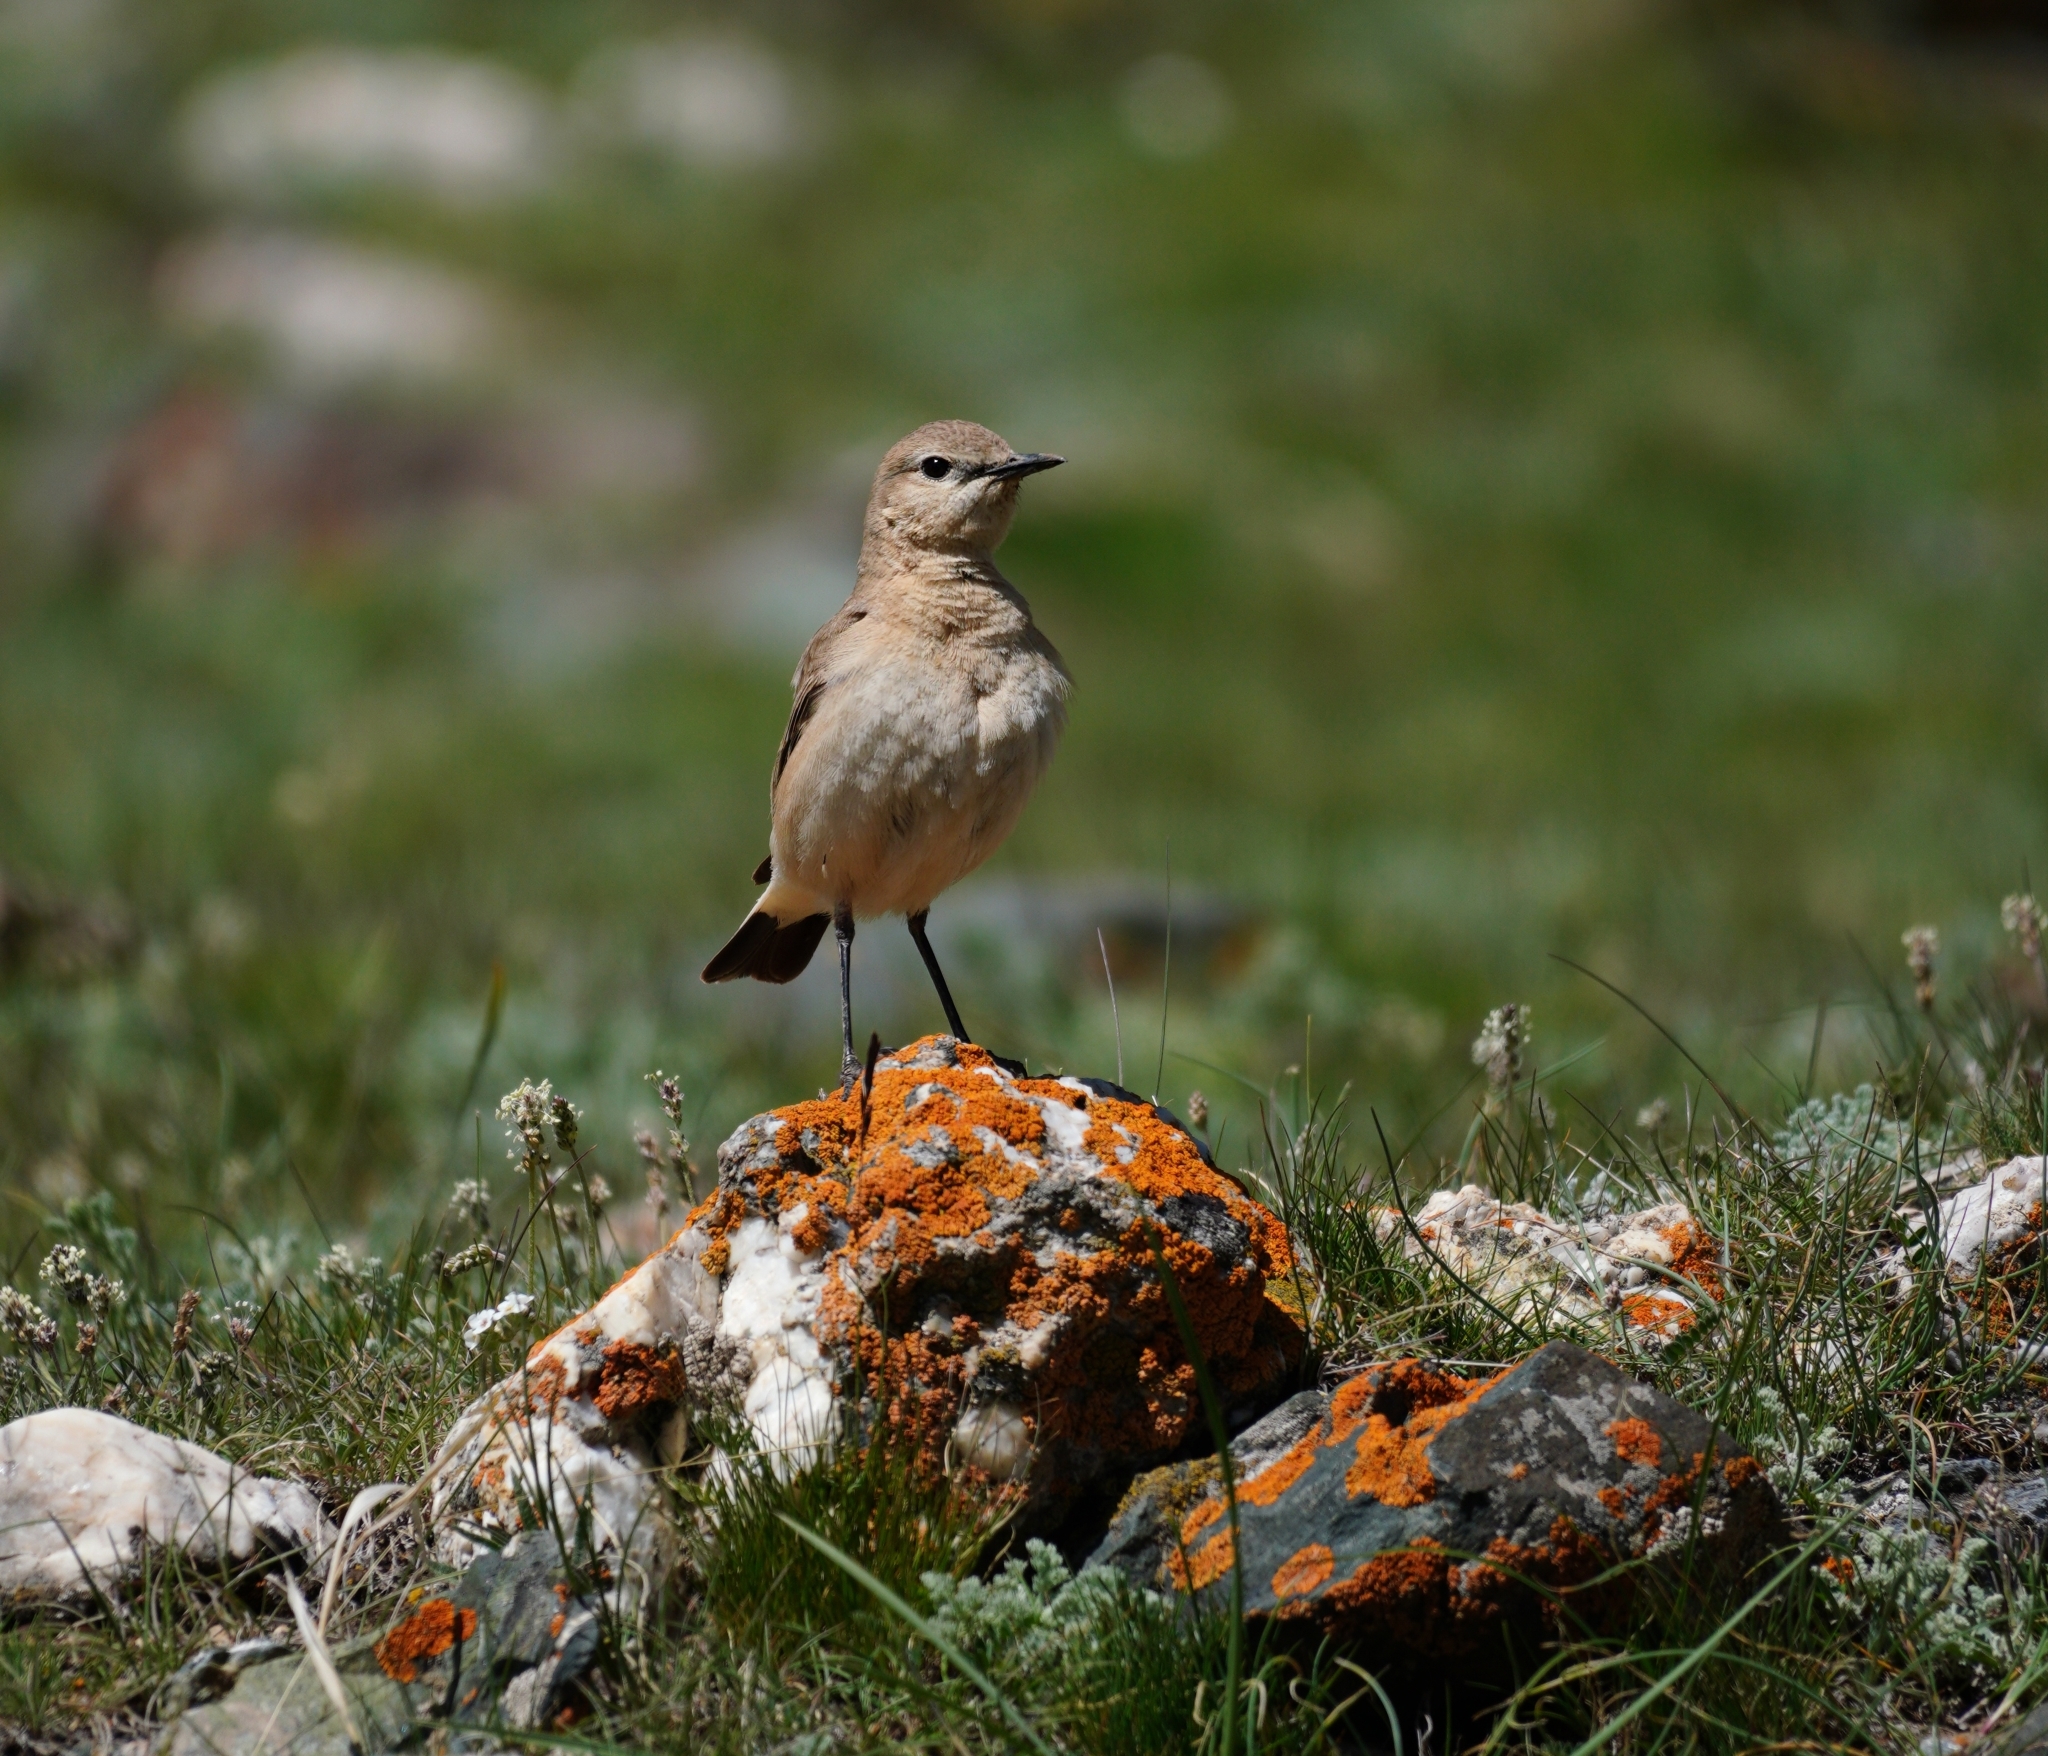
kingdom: Animalia
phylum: Chordata
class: Aves
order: Passeriformes
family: Muscicapidae
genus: Oenanthe
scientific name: Oenanthe isabellina
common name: Isabelline wheatear
